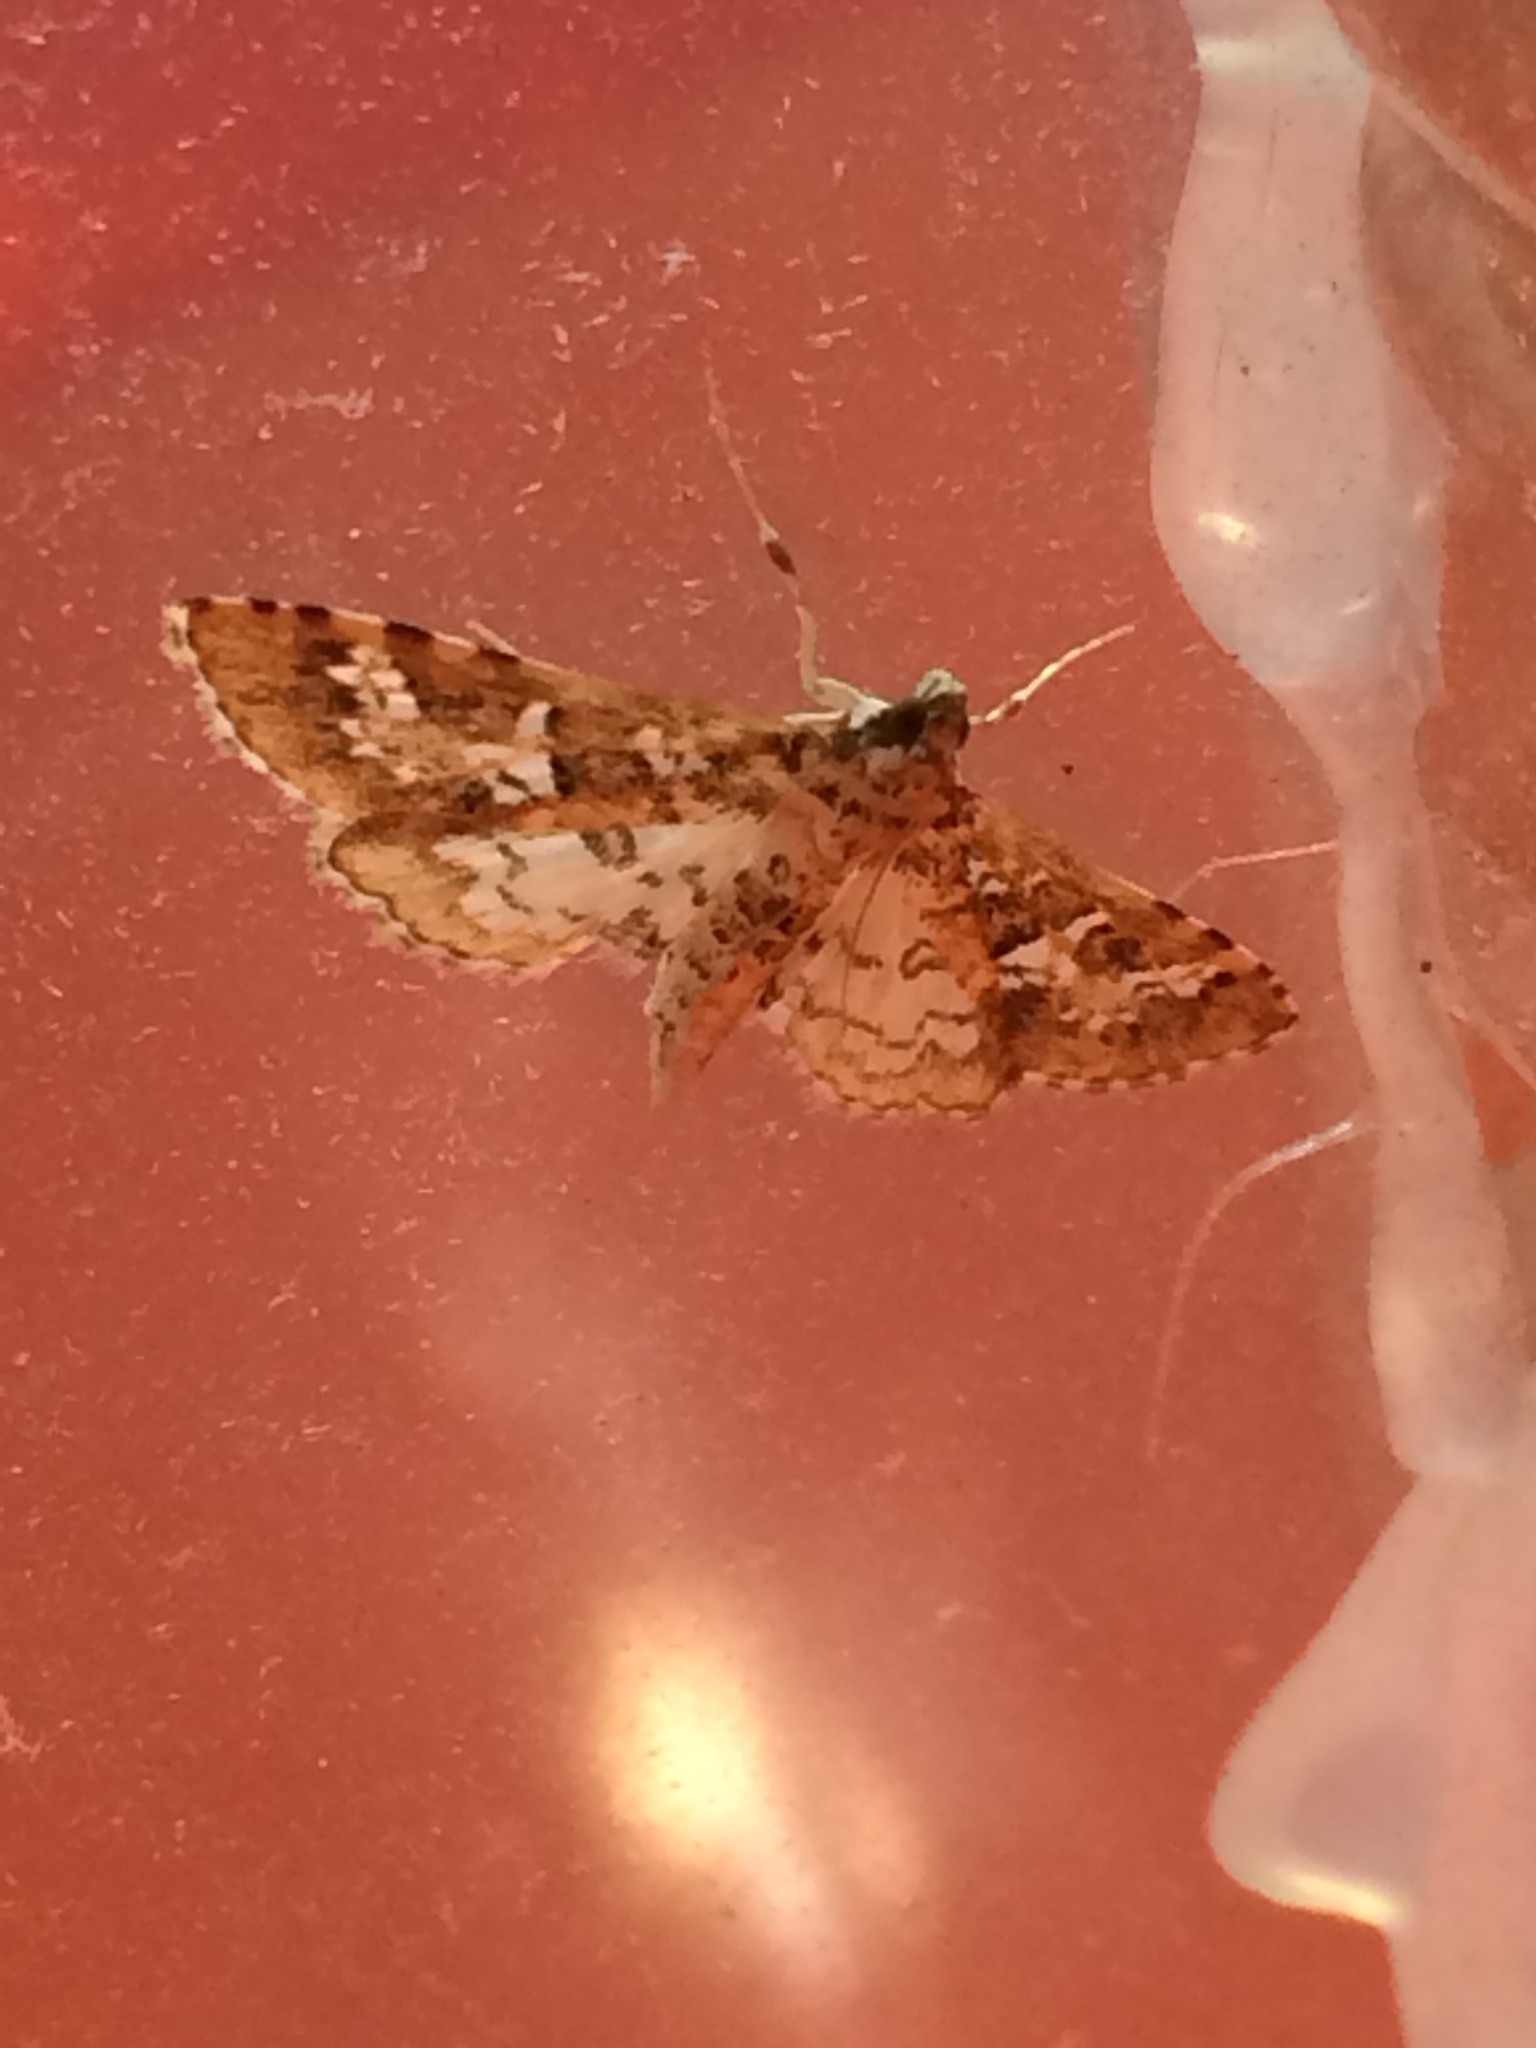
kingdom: Animalia
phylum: Arthropoda
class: Insecta
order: Lepidoptera
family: Crambidae
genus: Samea
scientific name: Samea multiplicalis
